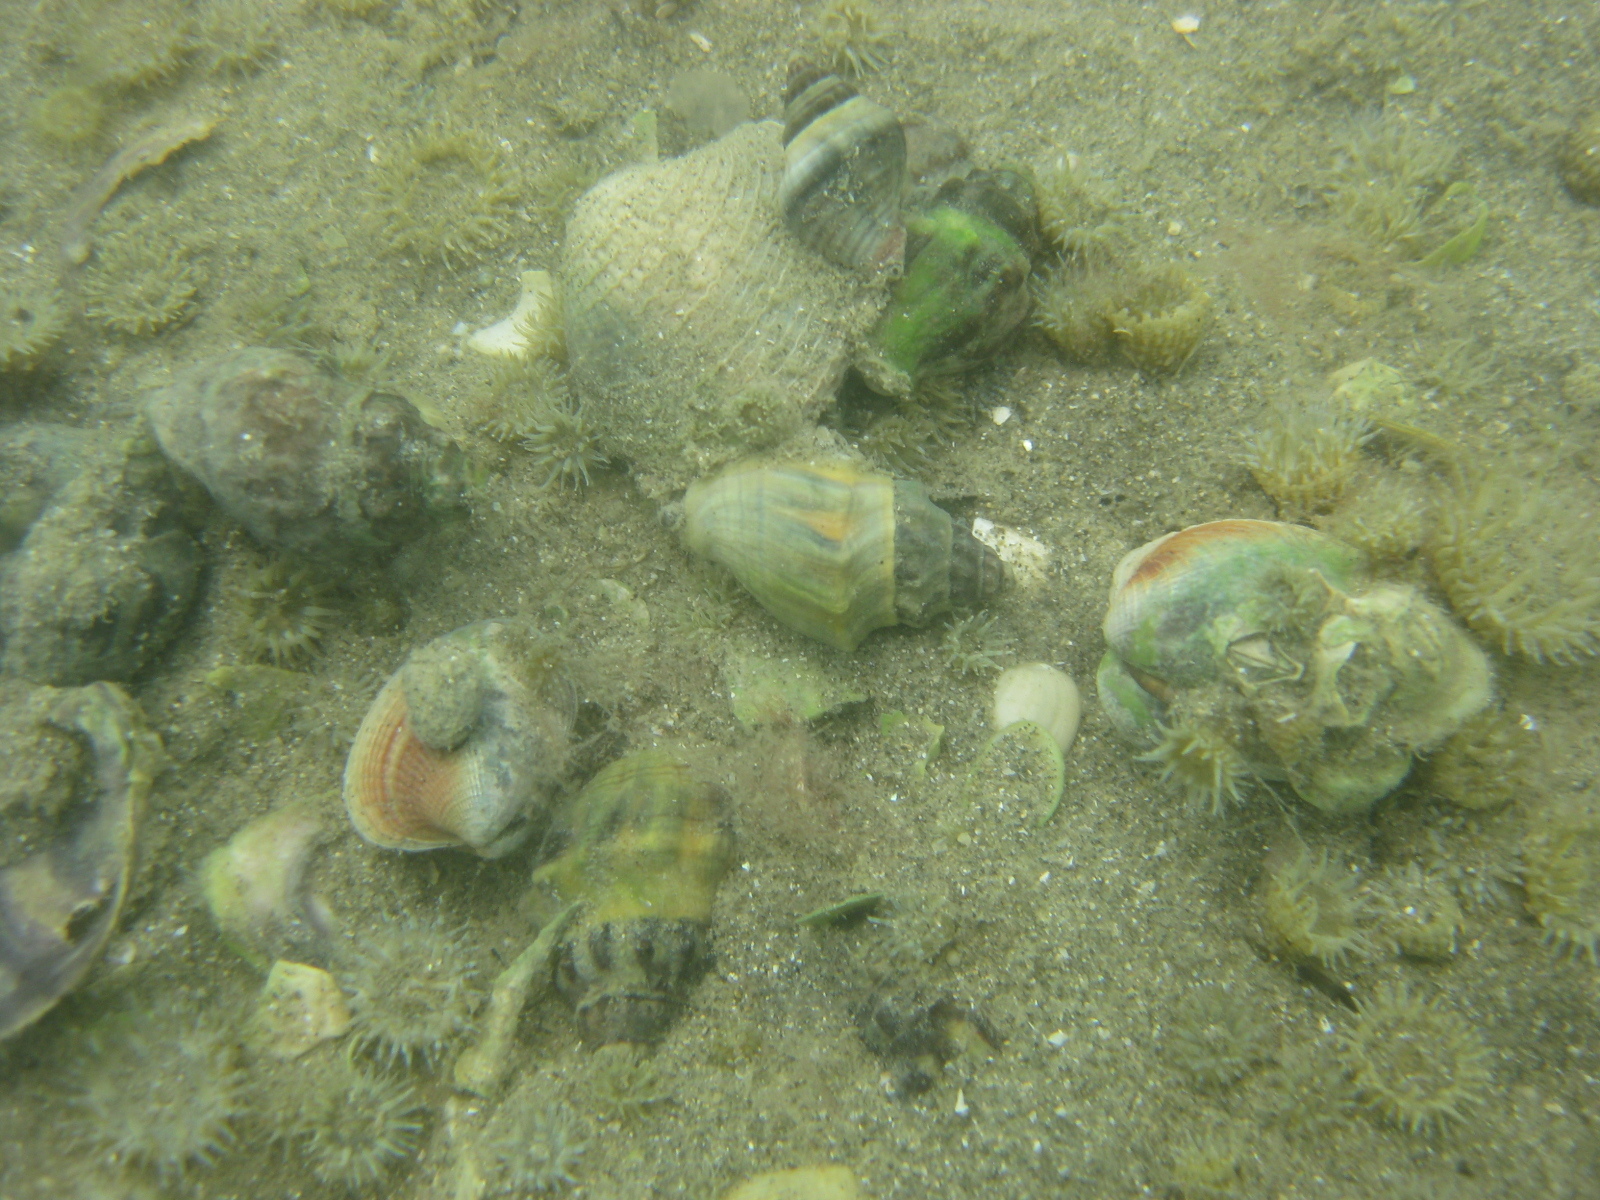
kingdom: Animalia
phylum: Mollusca
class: Gastropoda
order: Neogastropoda
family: Cominellidae
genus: Cominella
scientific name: Cominella glandiformis
